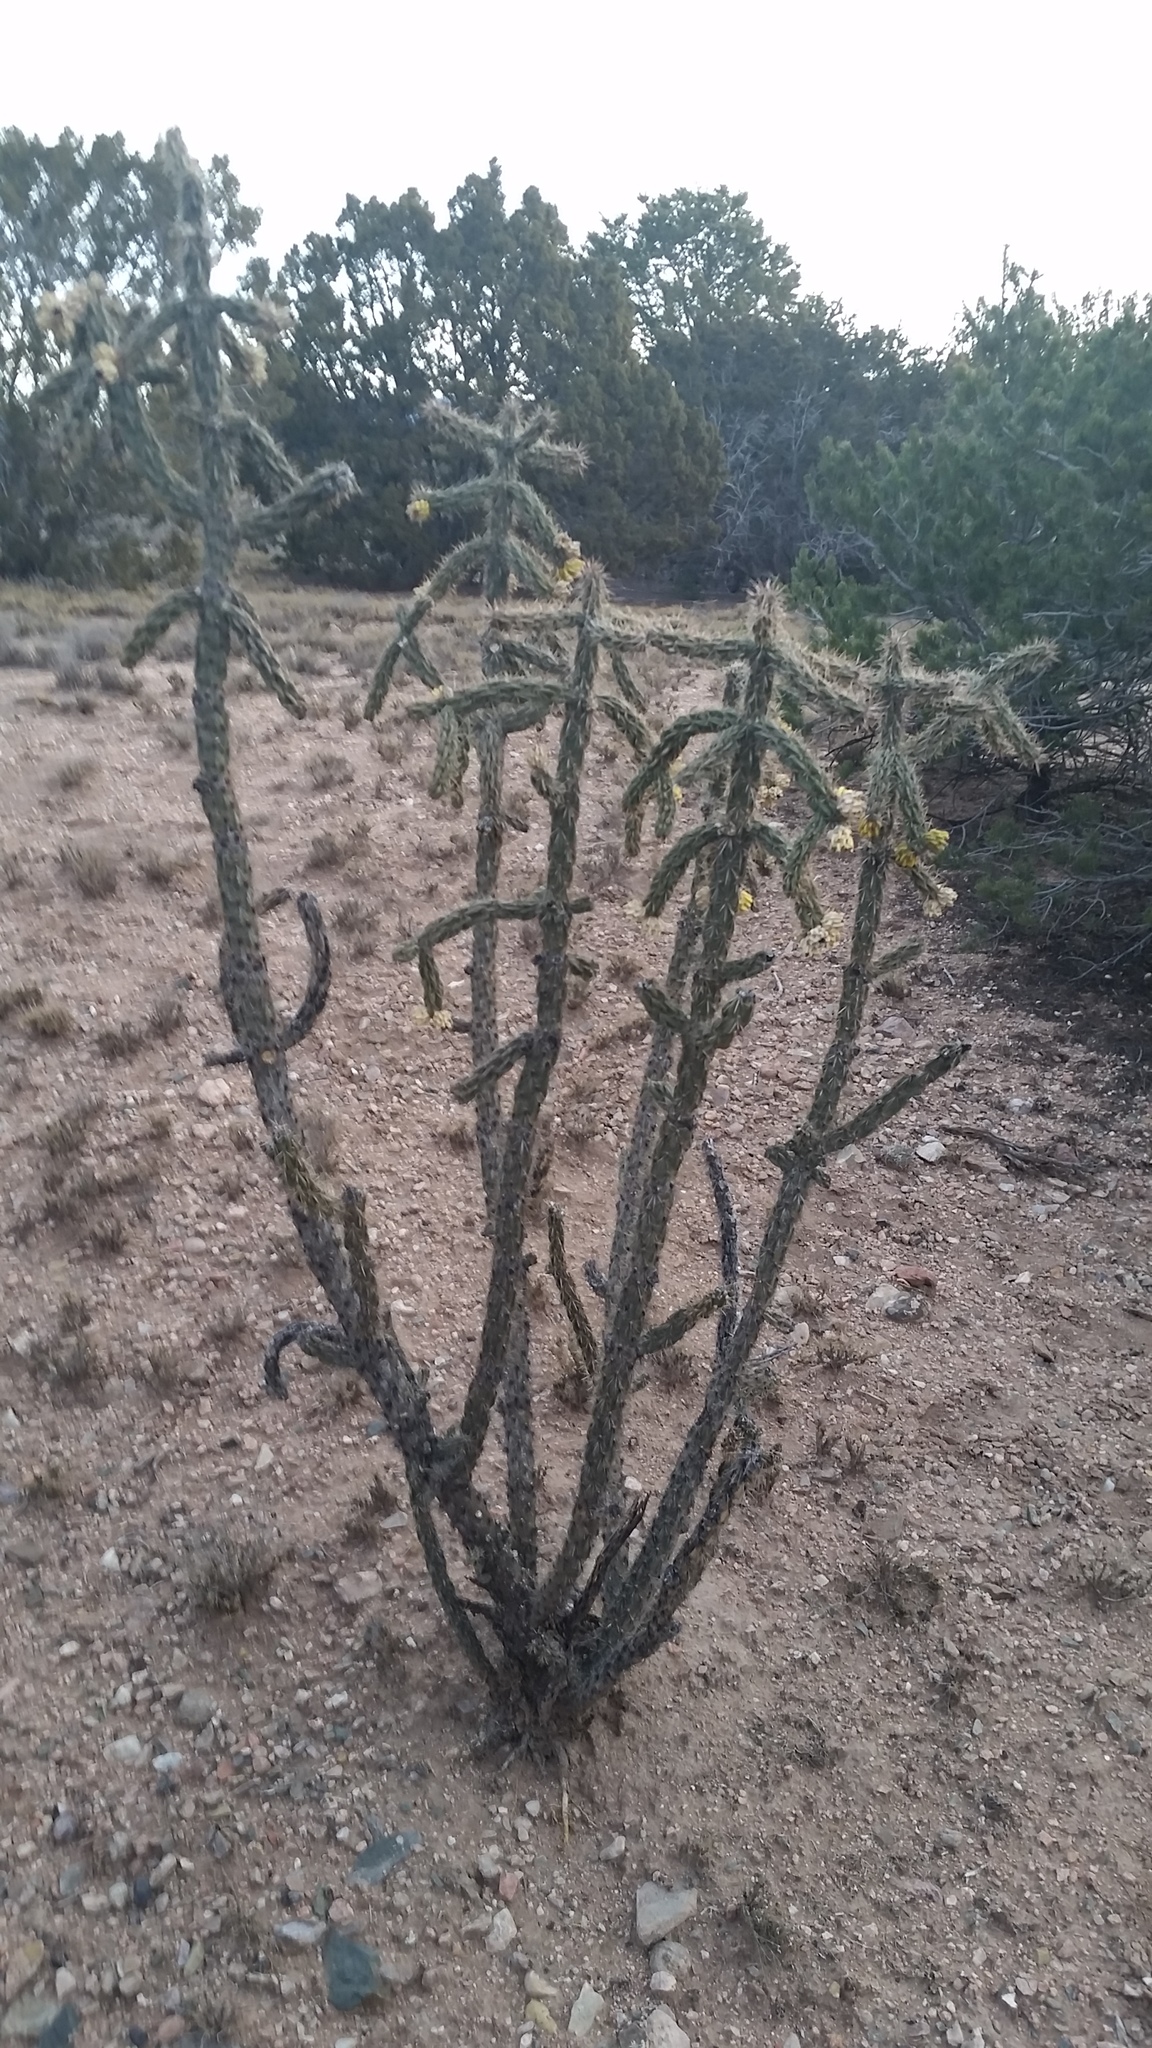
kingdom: Plantae
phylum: Tracheophyta
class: Magnoliopsida
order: Caryophyllales
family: Cactaceae
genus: Cylindropuntia
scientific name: Cylindropuntia imbricata
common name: Candelabrum cactus
